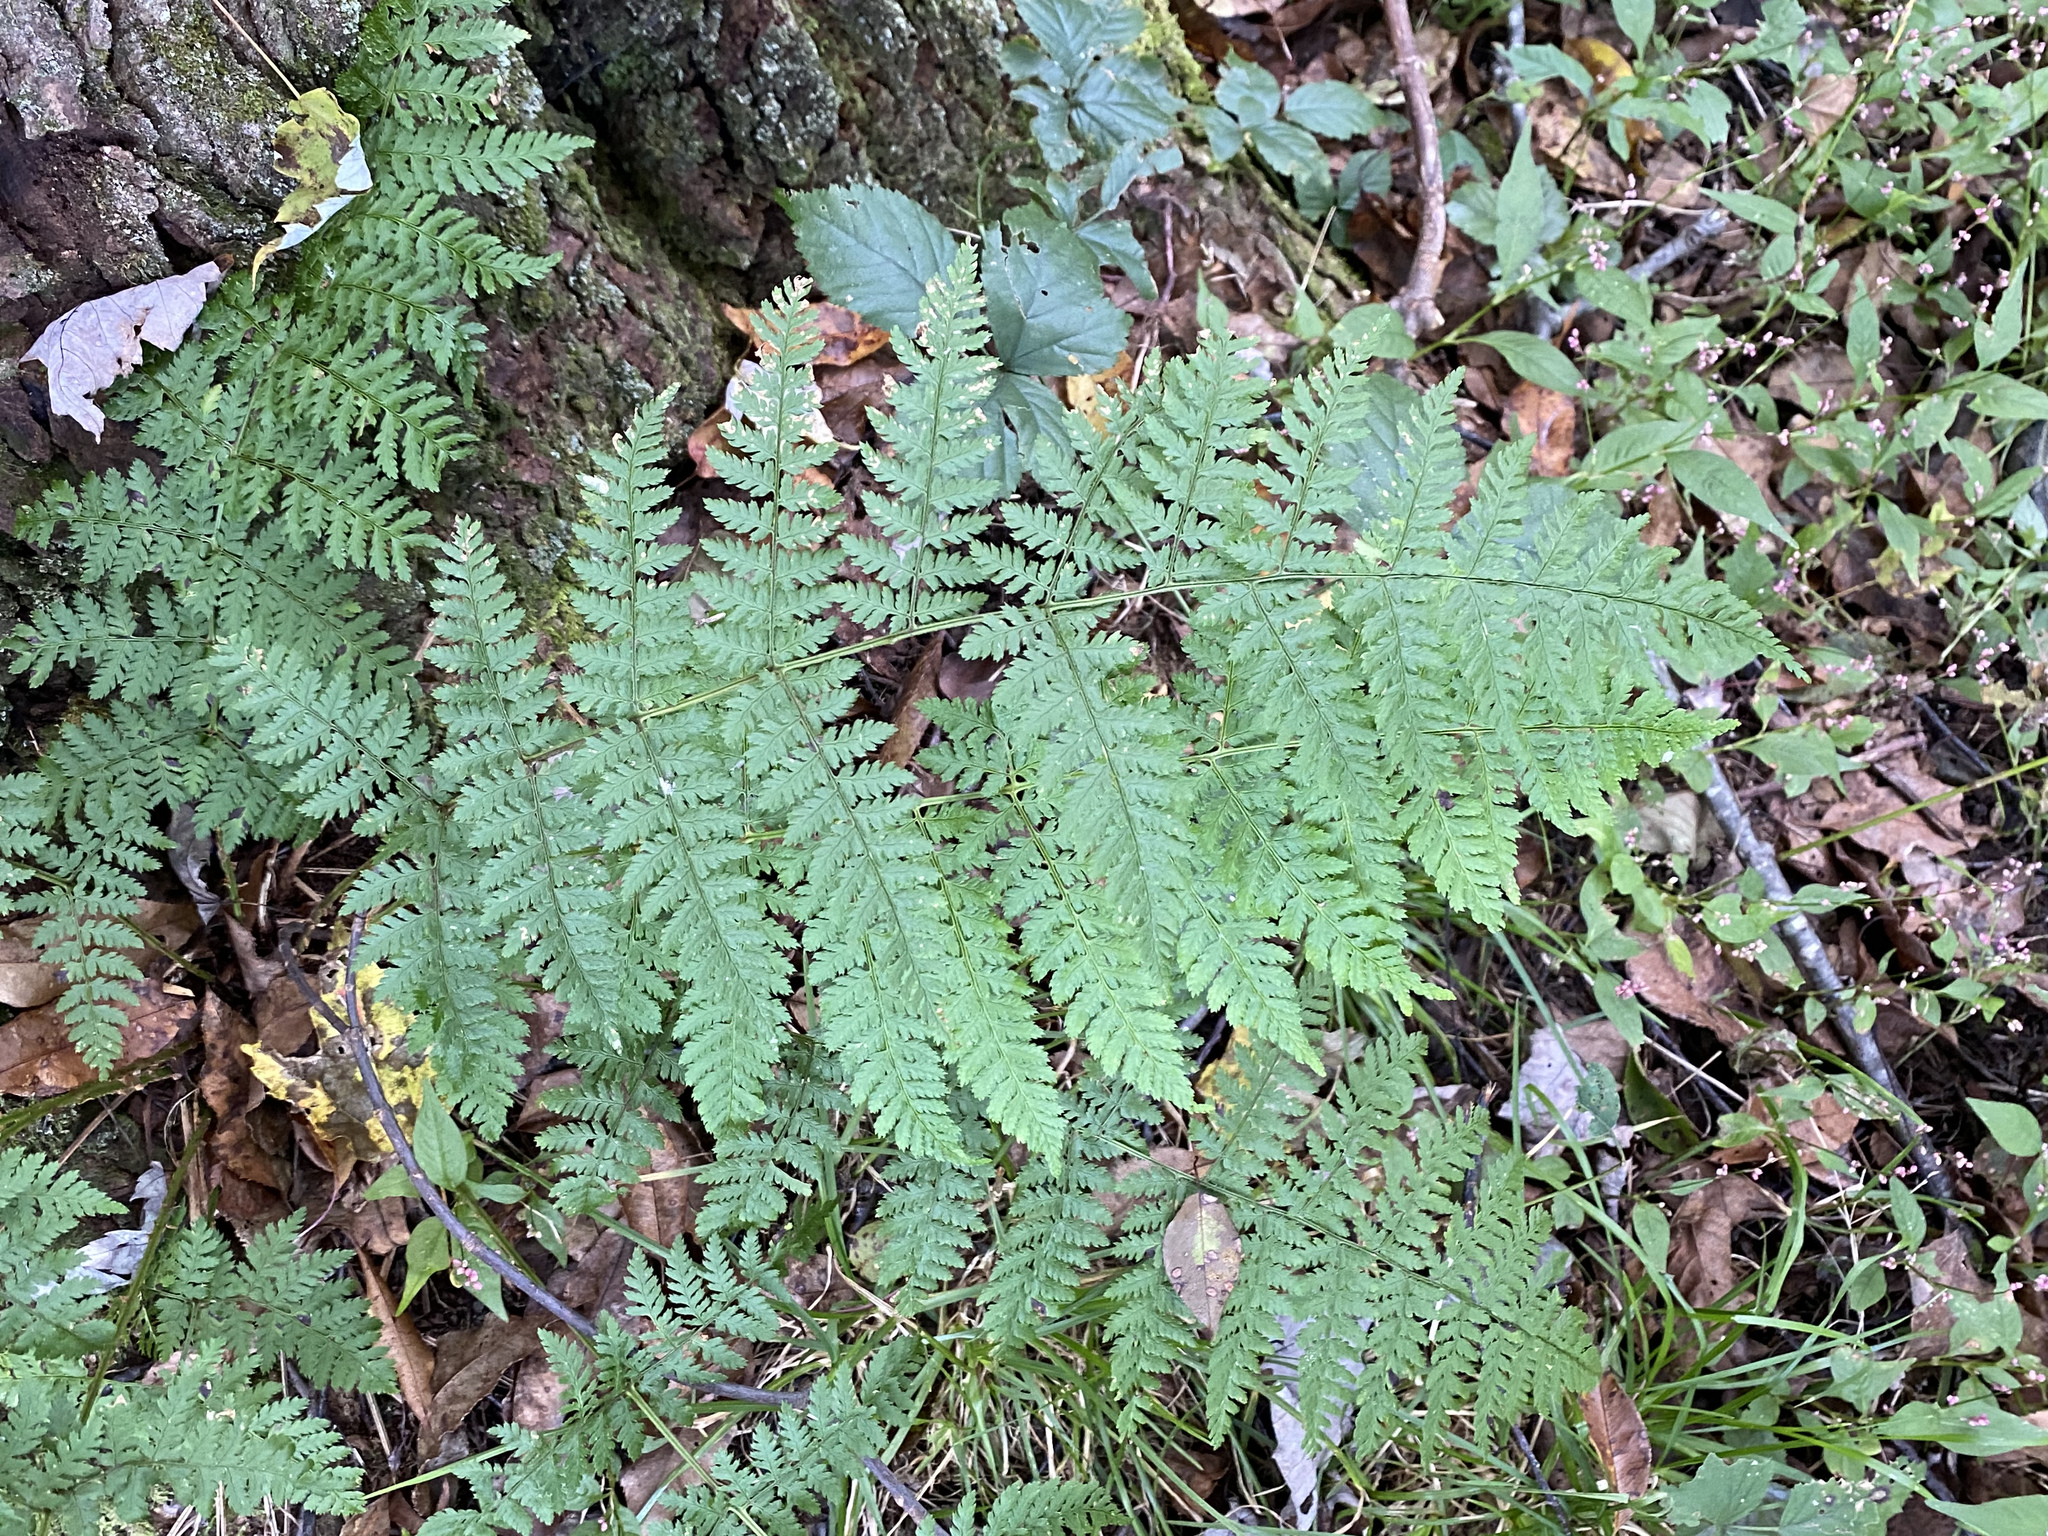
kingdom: Plantae
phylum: Tracheophyta
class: Polypodiopsida
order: Polypodiales
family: Dryopteridaceae
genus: Dryopteris
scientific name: Dryopteris intermedia
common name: Evergreen wood fern
